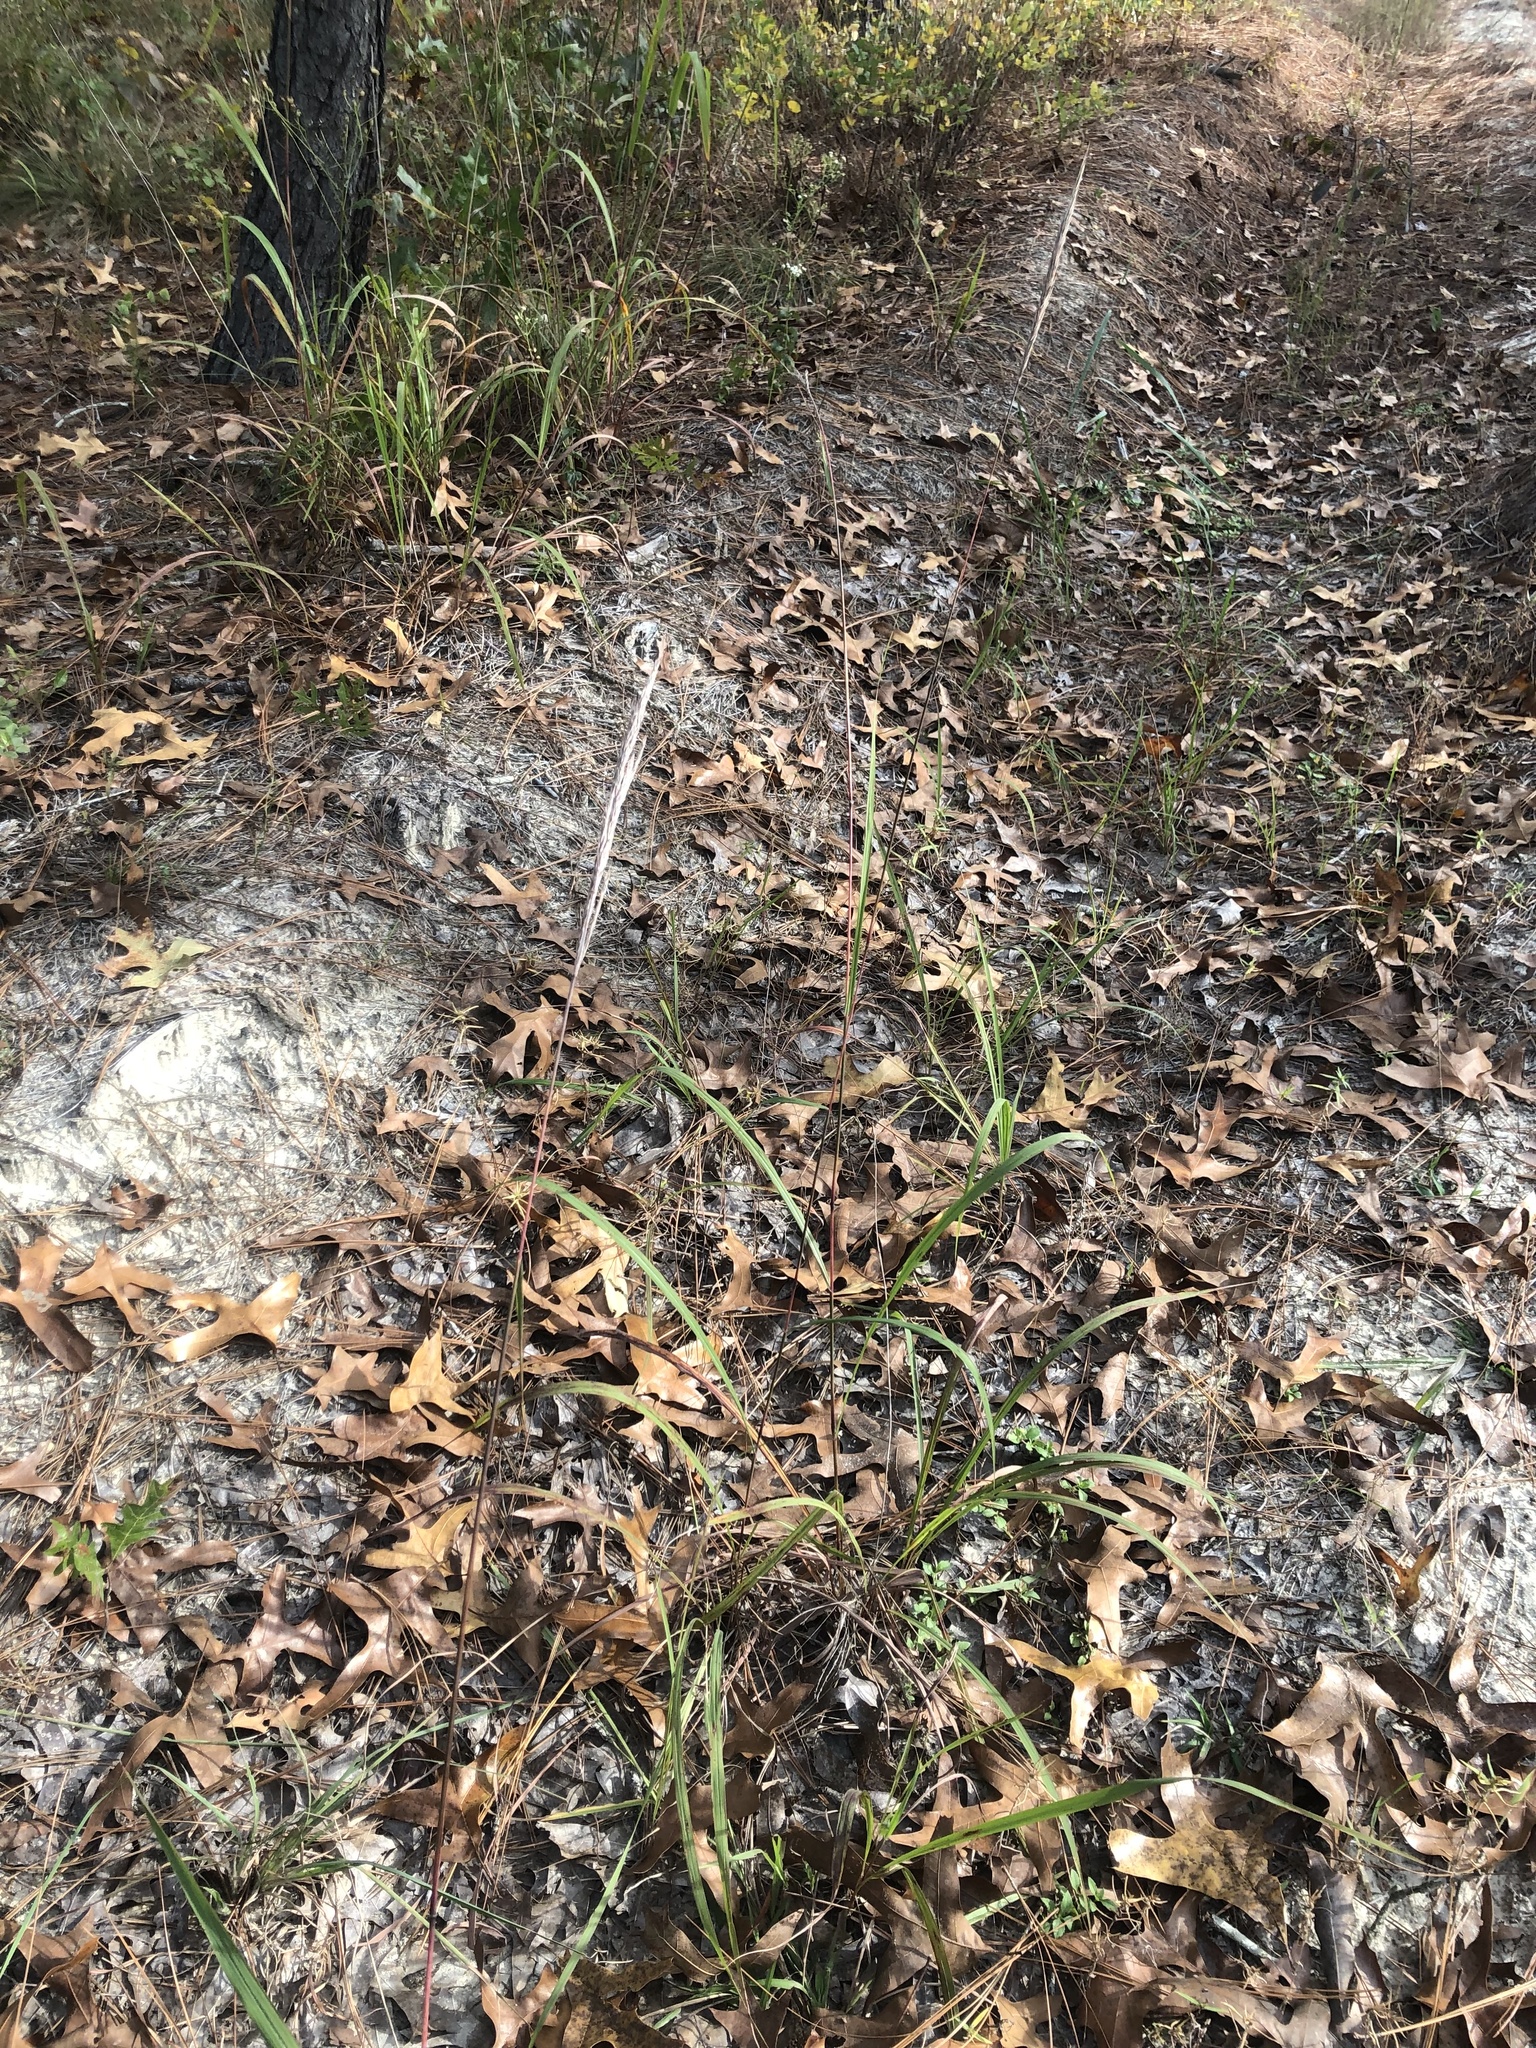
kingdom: Plantae
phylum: Tracheophyta
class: Liliopsida
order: Poales
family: Poaceae
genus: Erianthus
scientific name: Erianthus strictus
